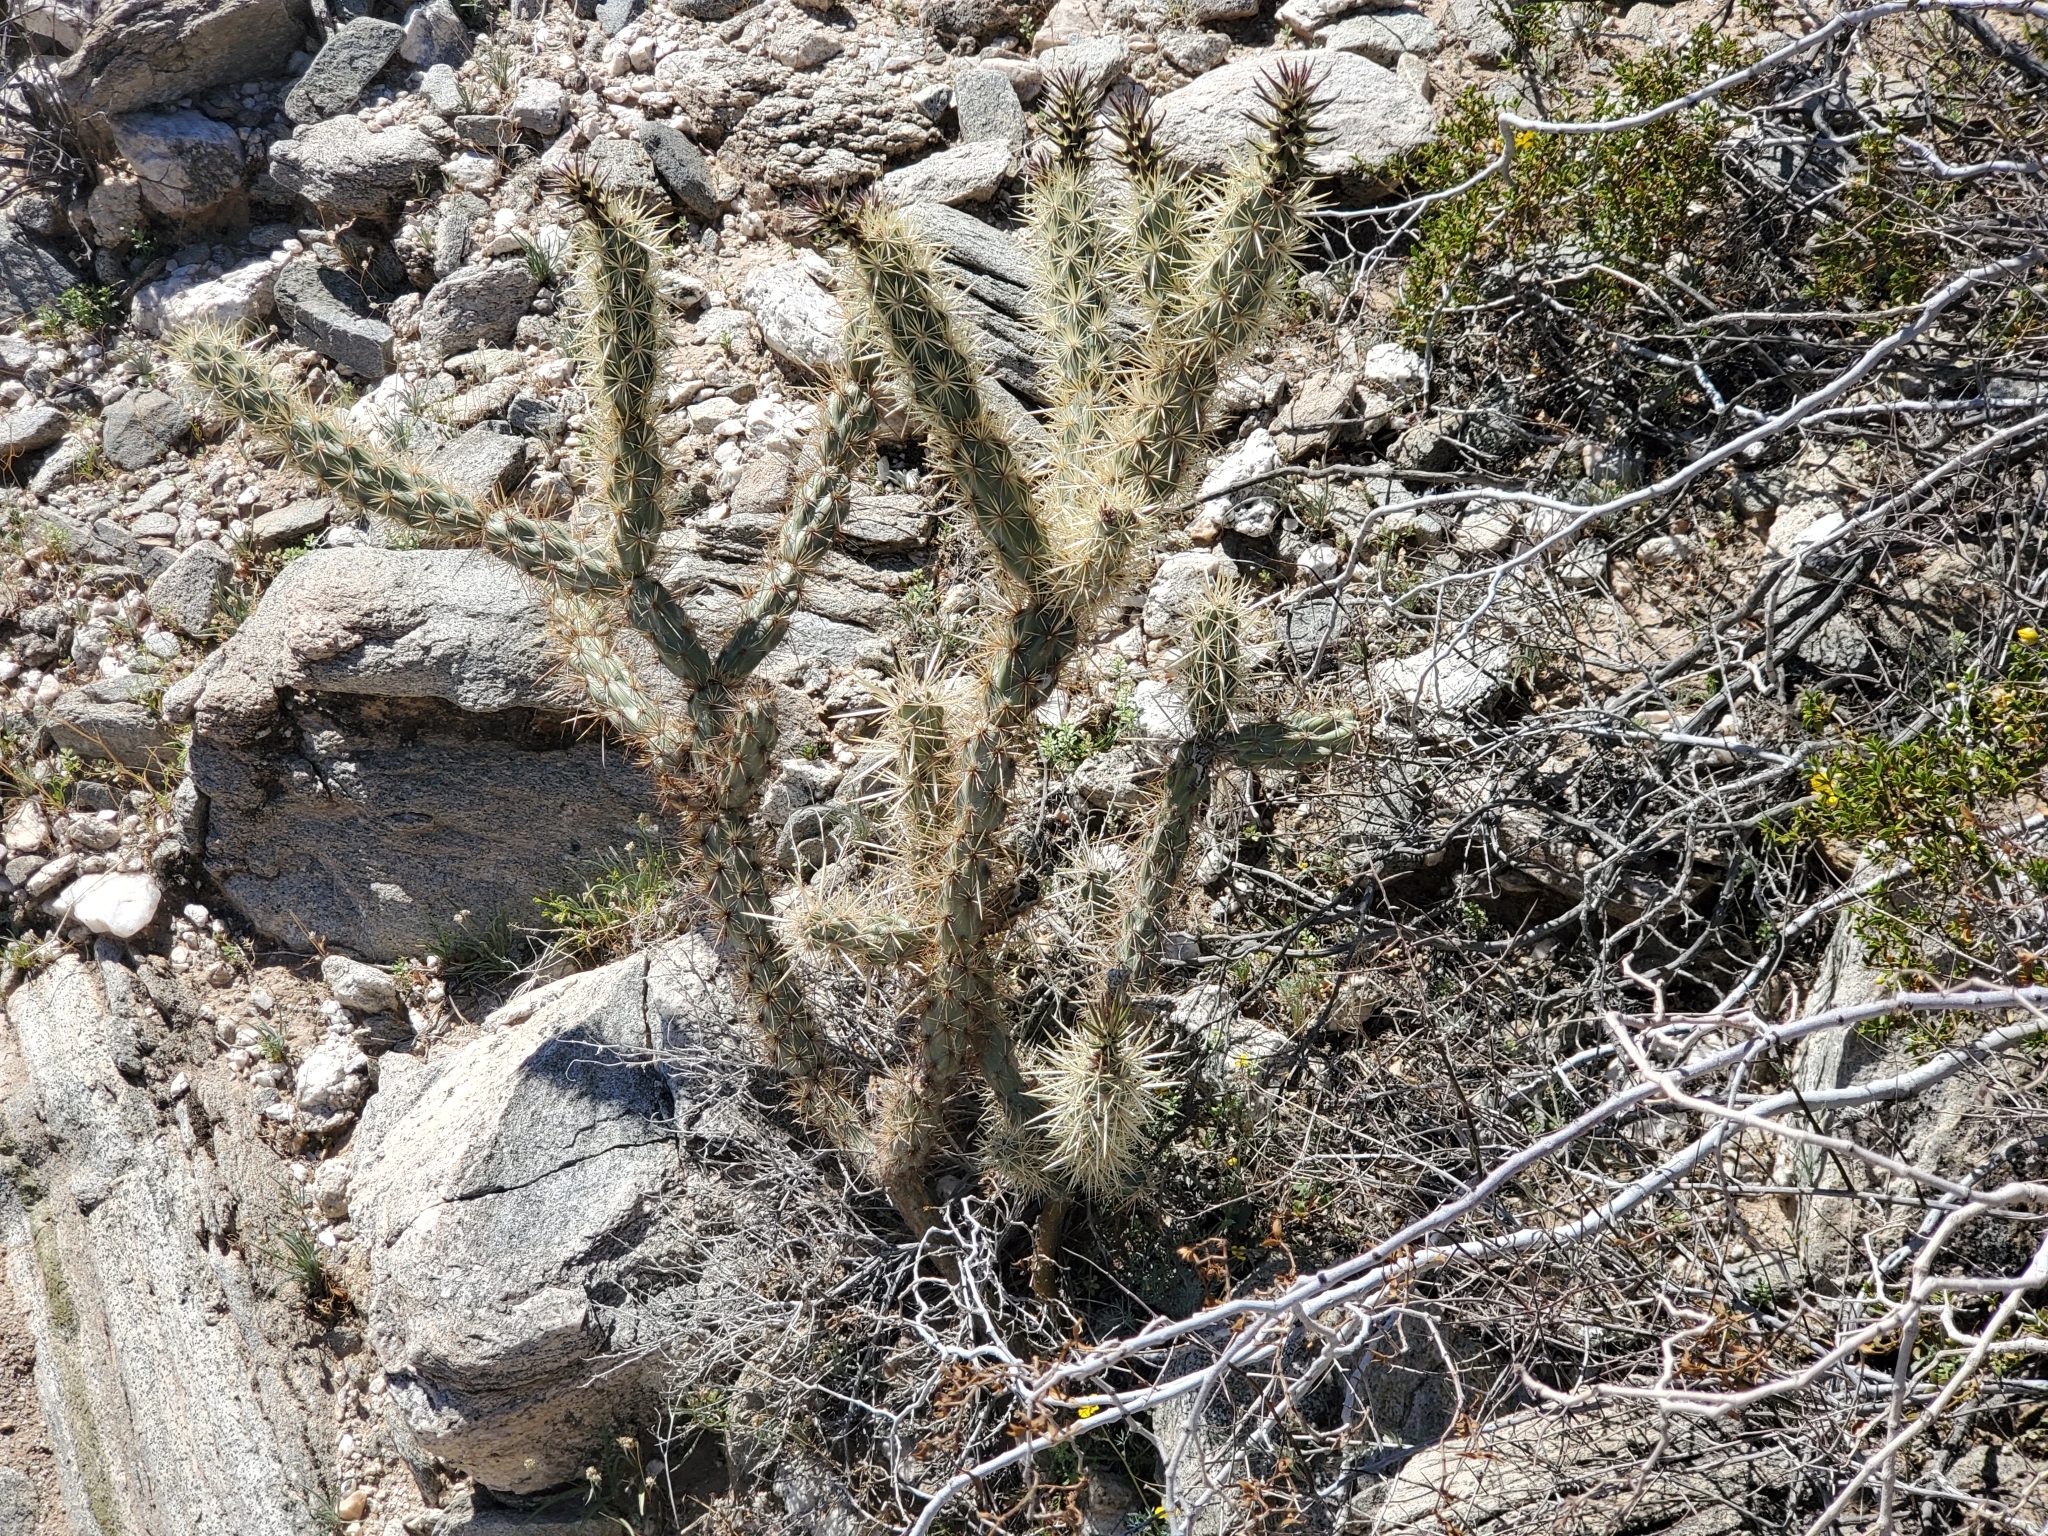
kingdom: Plantae
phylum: Tracheophyta
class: Magnoliopsida
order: Caryophyllales
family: Cactaceae
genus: Cylindropuntia
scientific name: Cylindropuntia acanthocarpa
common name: Buckhorn cholla
